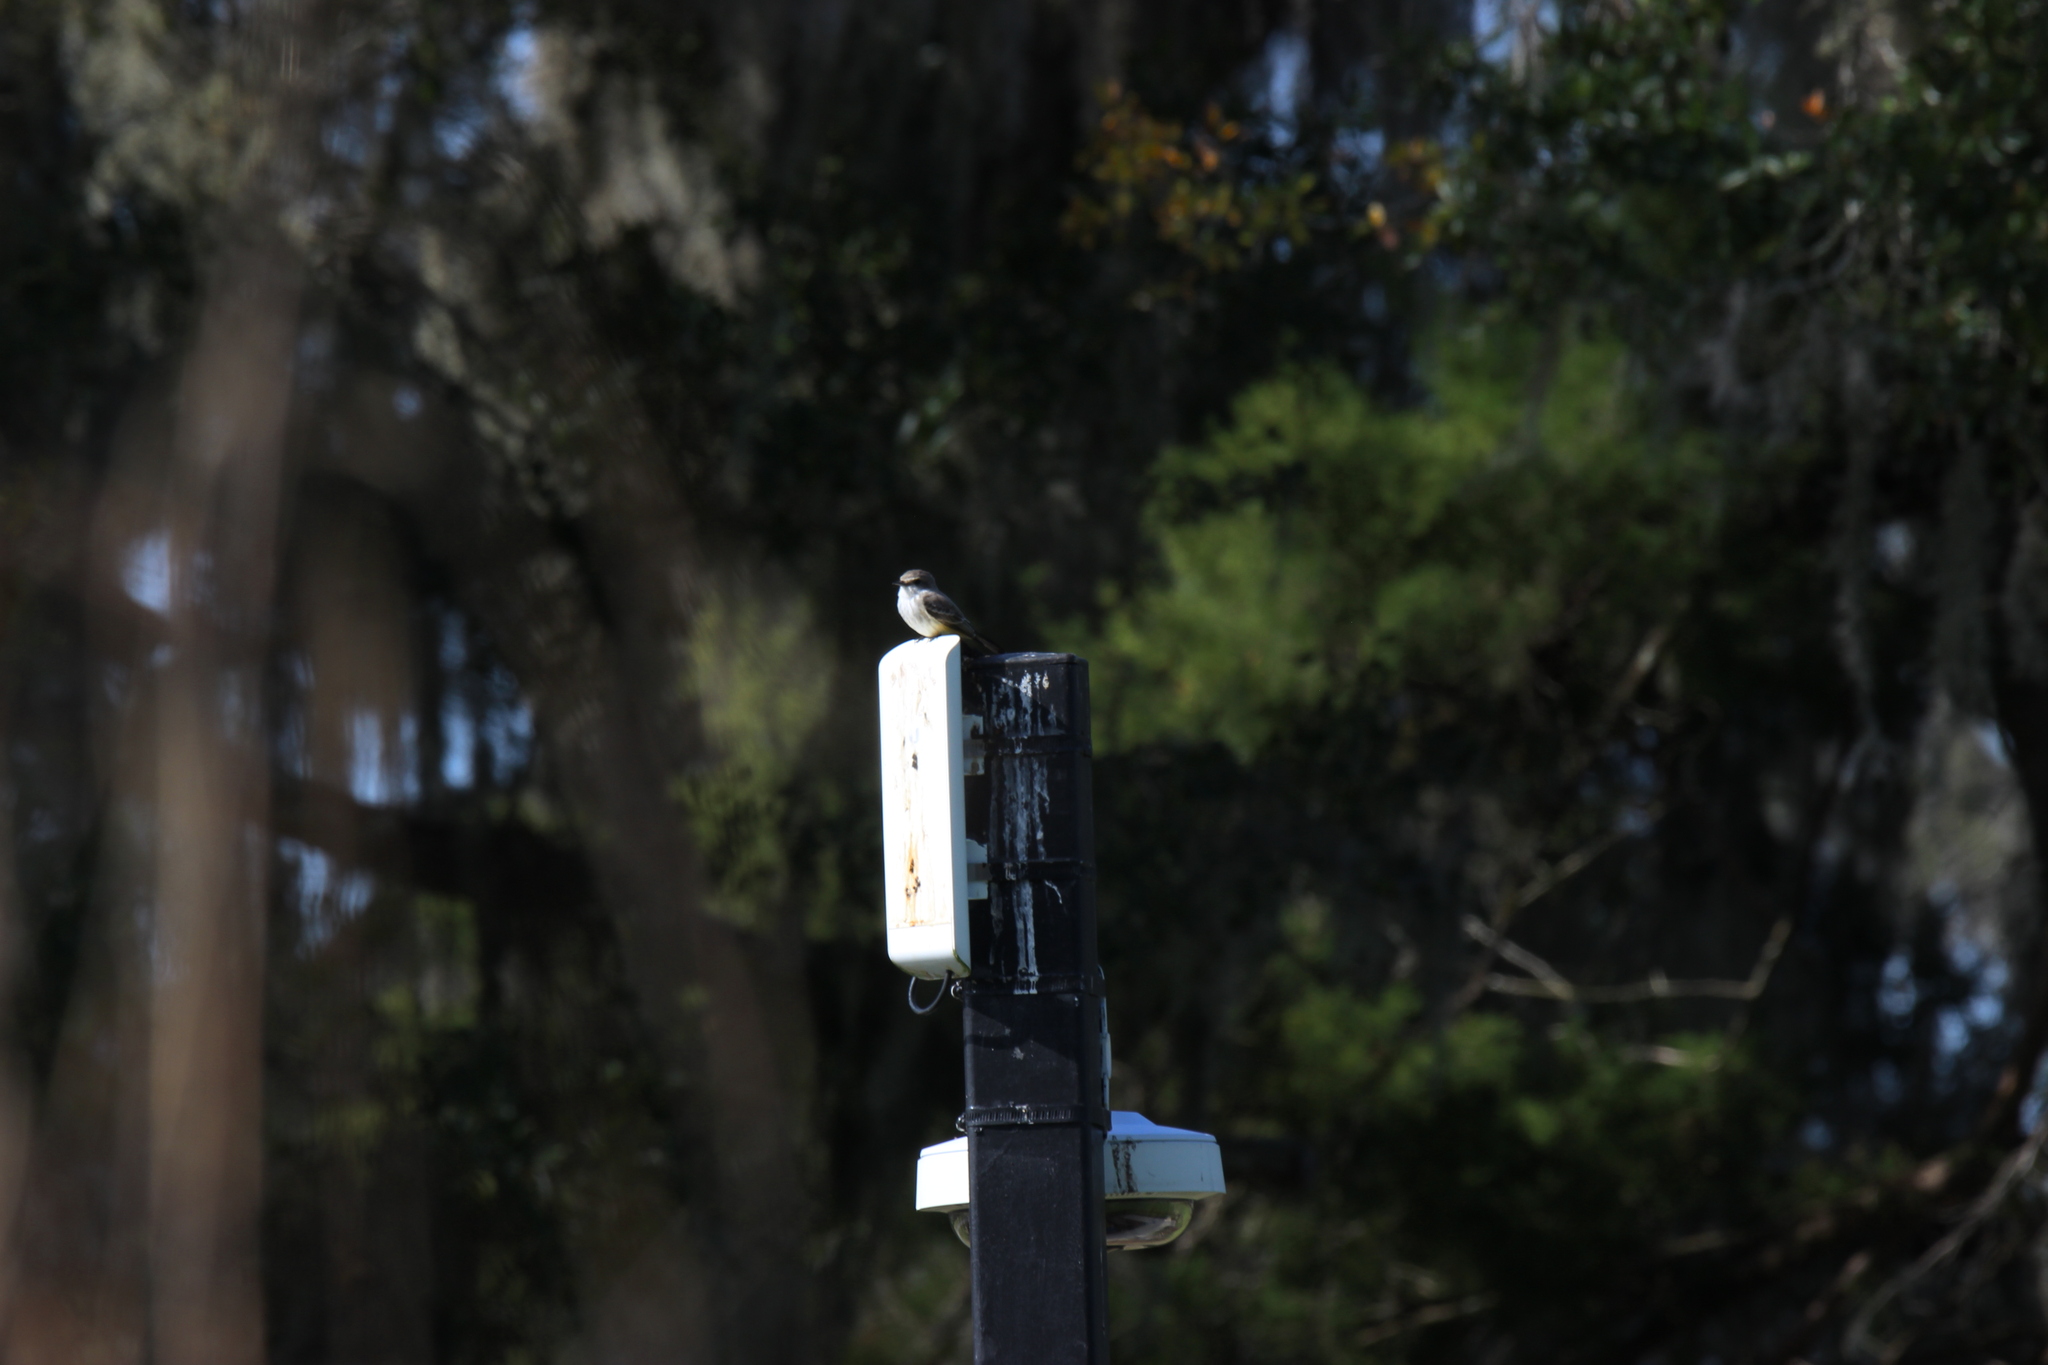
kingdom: Animalia
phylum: Chordata
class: Aves
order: Passeriformes
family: Tyrannidae
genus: Pyrocephalus
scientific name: Pyrocephalus rubinus
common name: Vermilion flycatcher
